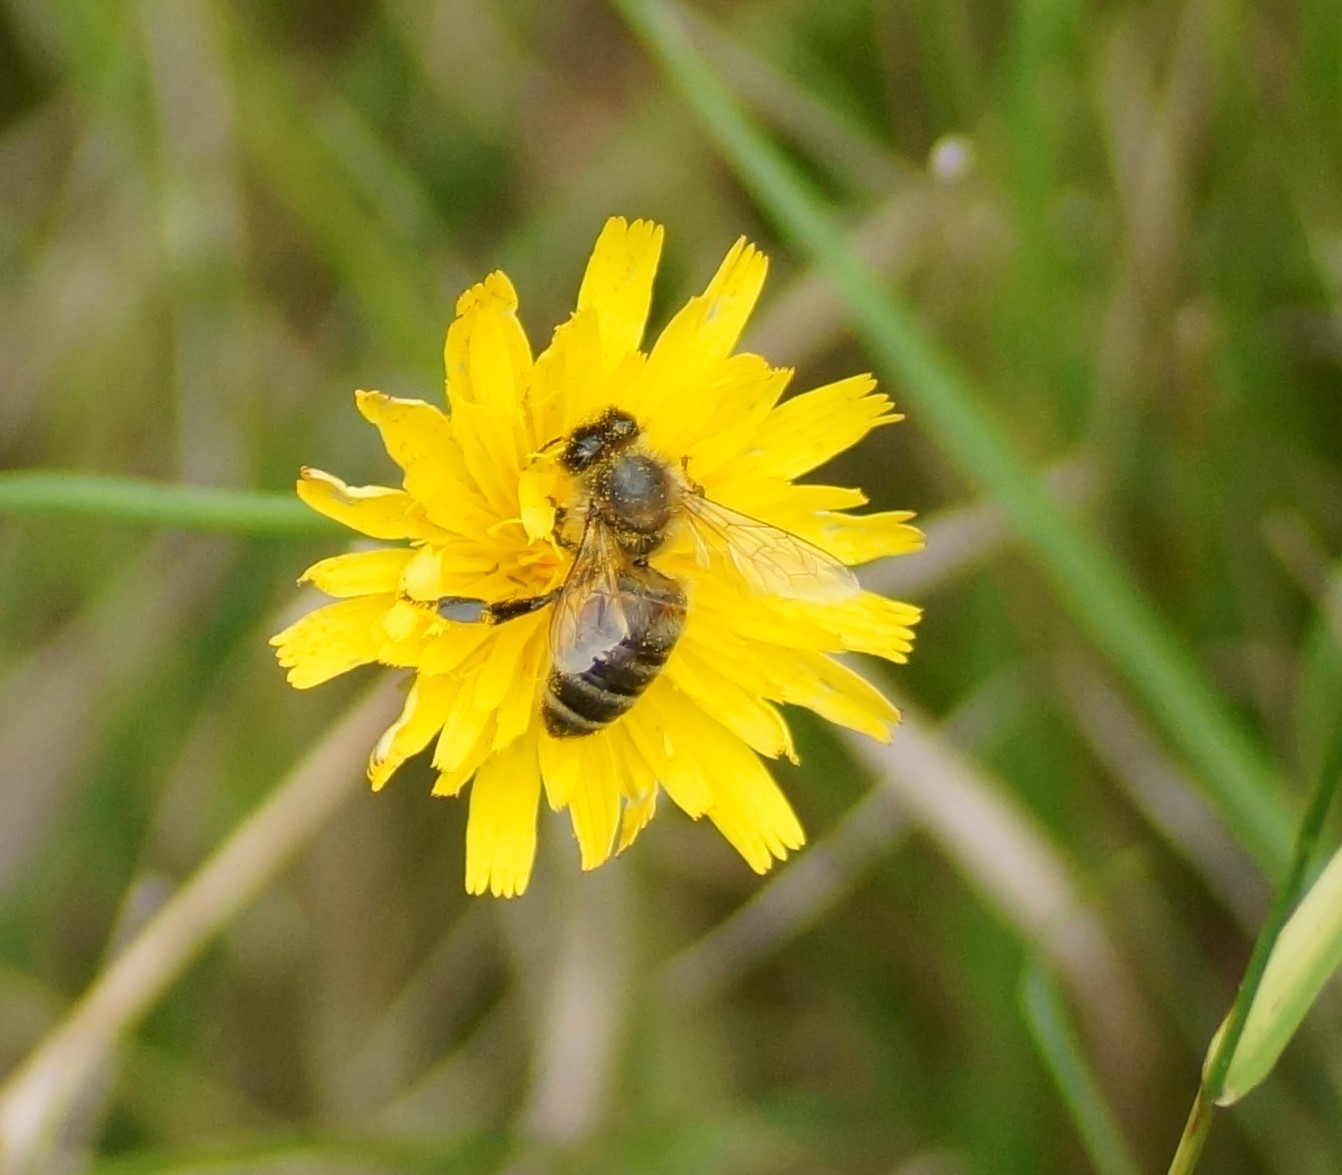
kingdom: Animalia
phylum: Arthropoda
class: Insecta
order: Hymenoptera
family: Apidae
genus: Apis
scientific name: Apis mellifera
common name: Honey bee
